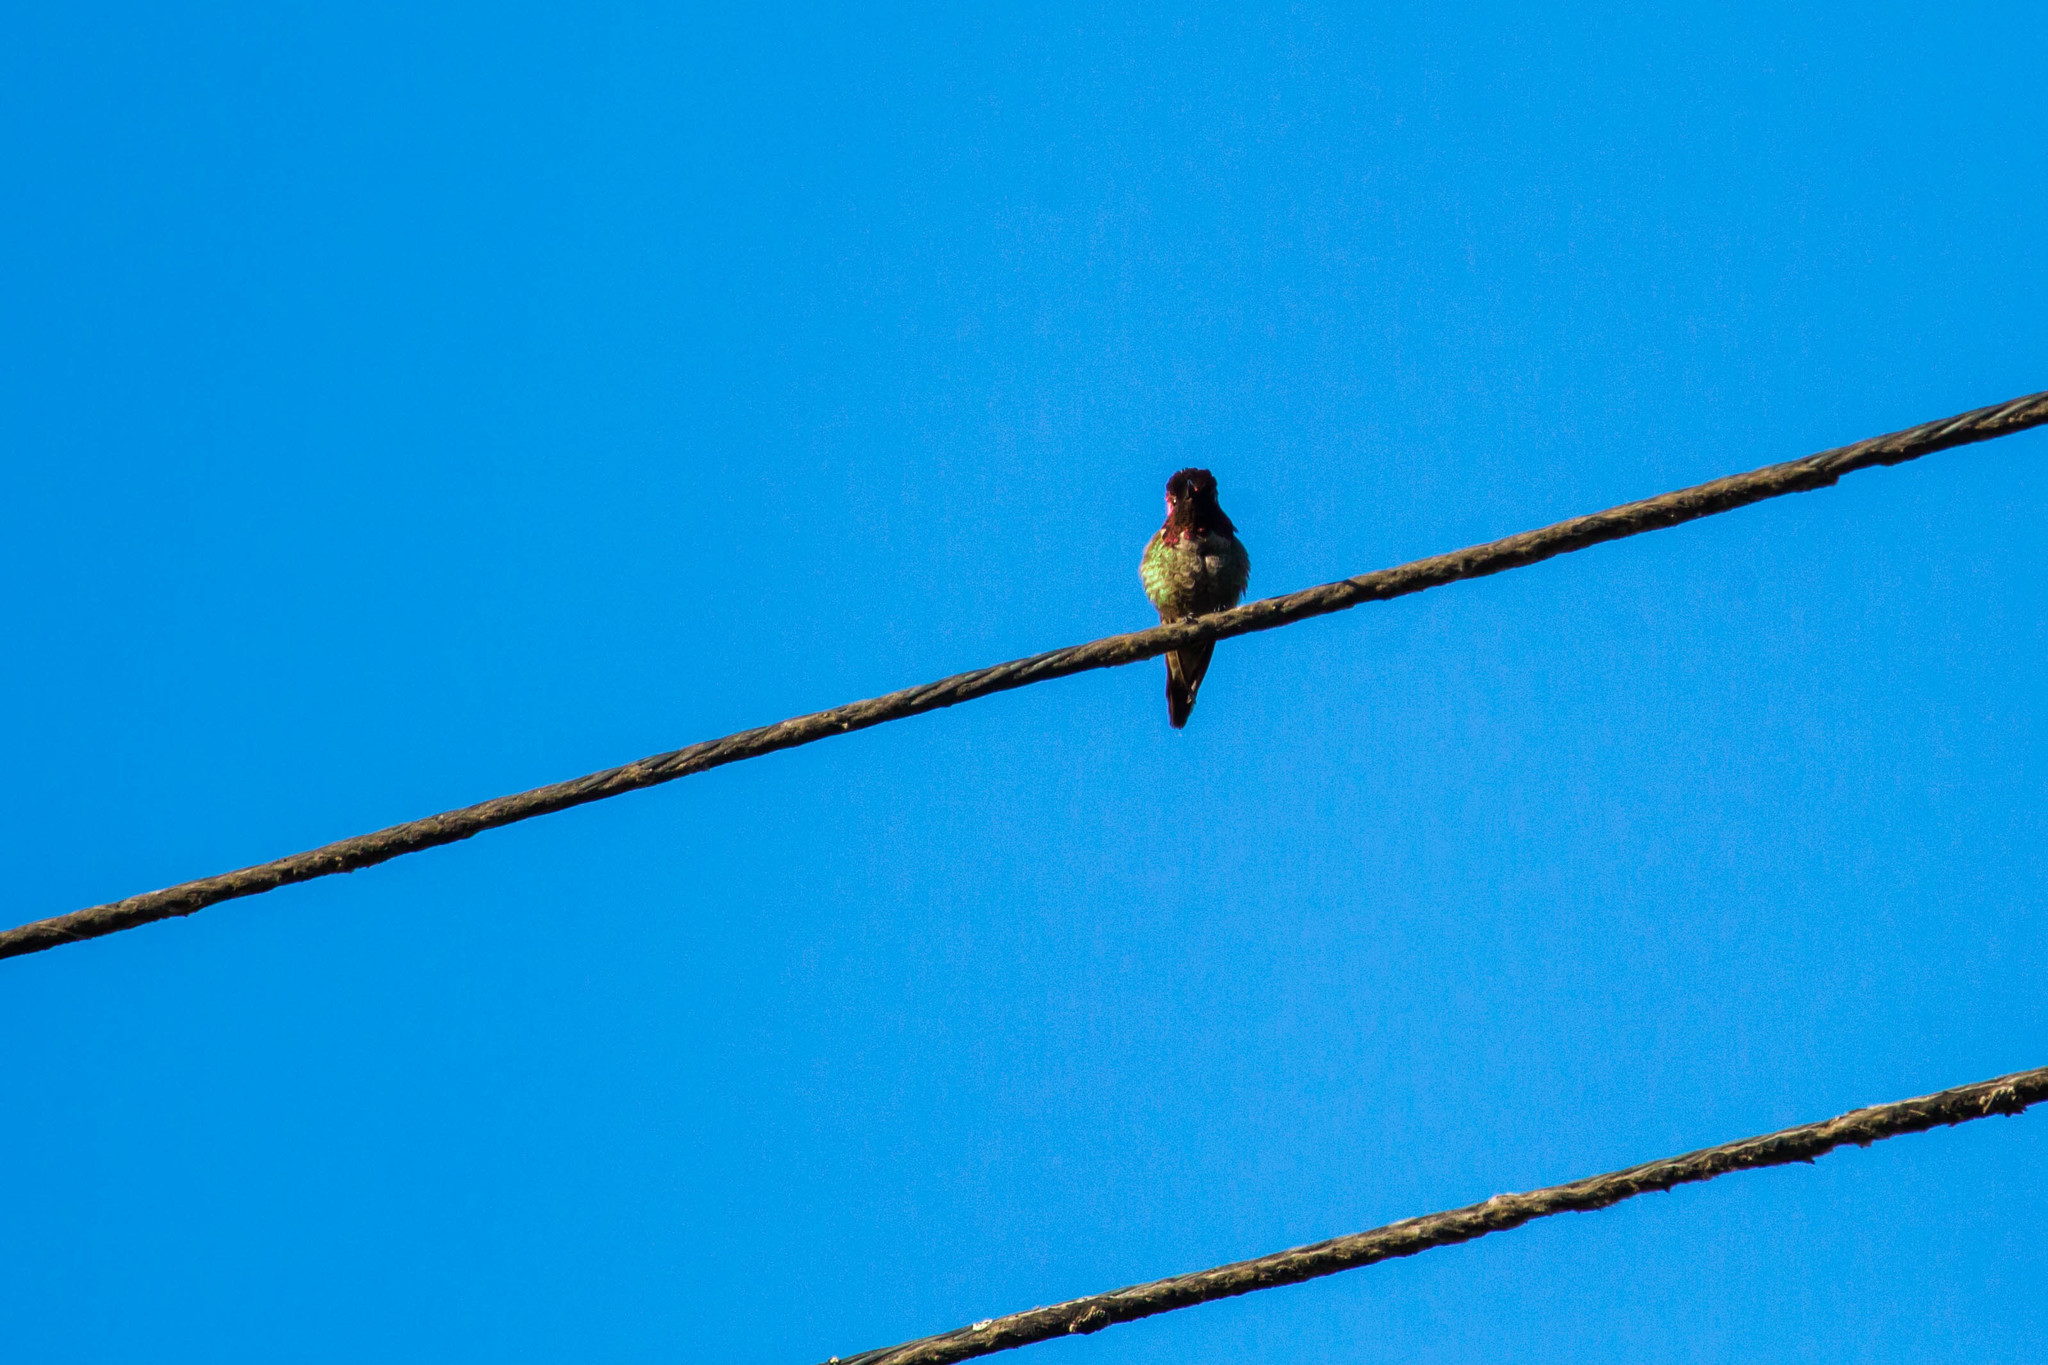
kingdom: Animalia
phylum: Chordata
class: Aves
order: Apodiformes
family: Trochilidae
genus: Calypte
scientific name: Calypte anna
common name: Anna's hummingbird
